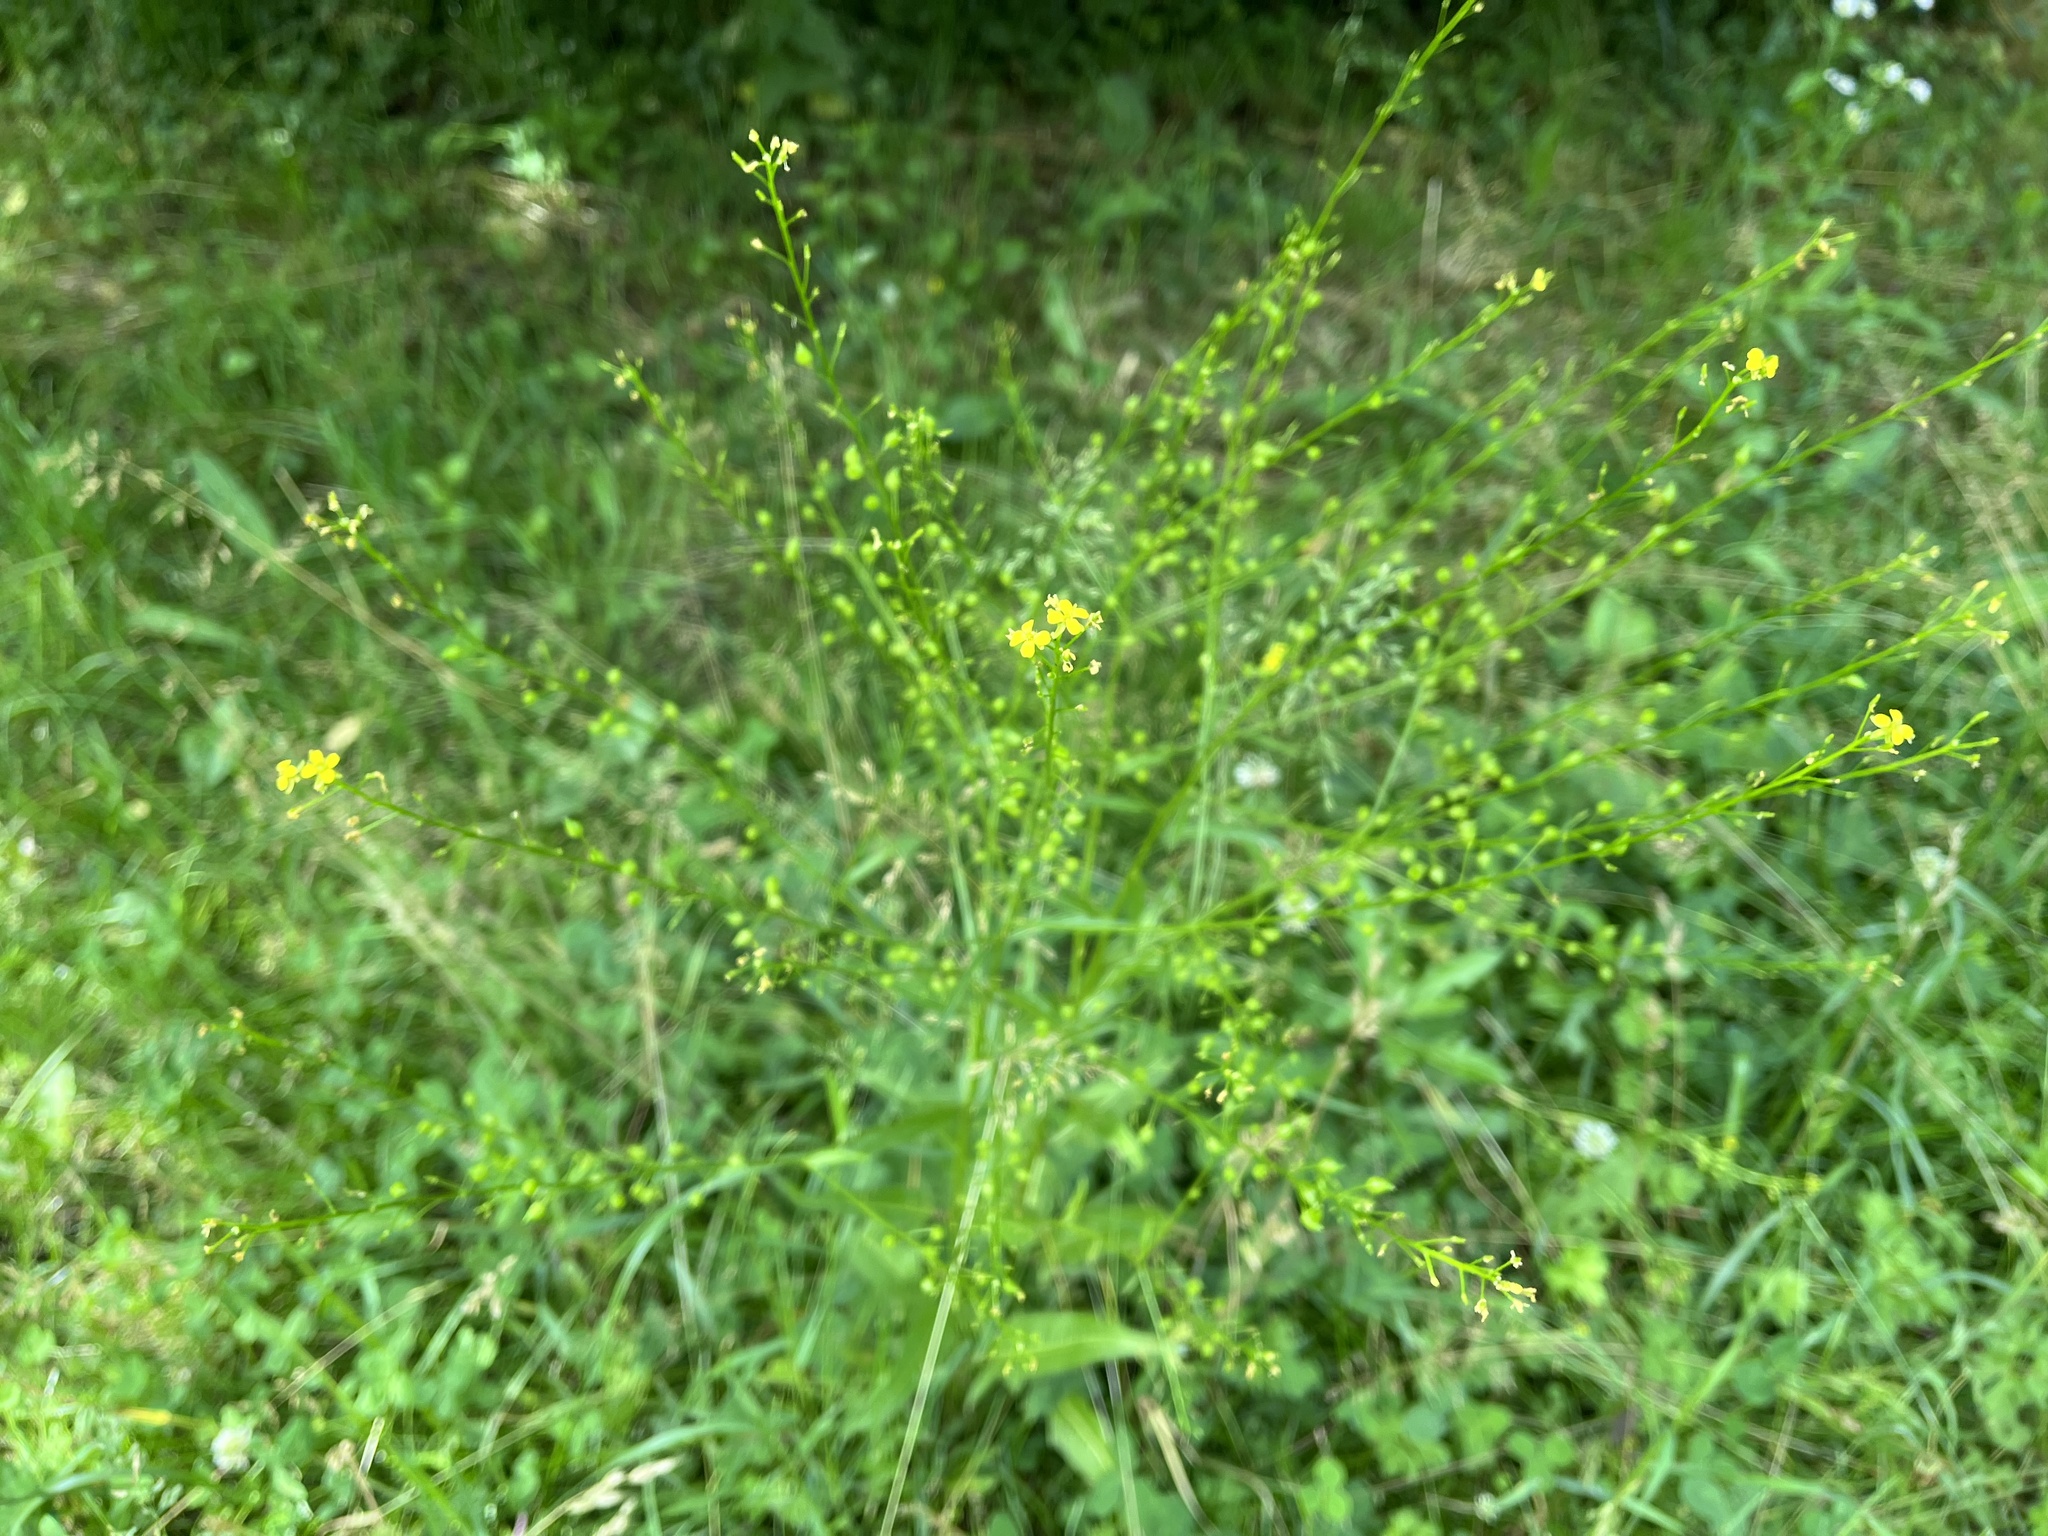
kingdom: Plantae
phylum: Tracheophyta
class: Magnoliopsida
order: Brassicales
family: Brassicaceae
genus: Bunias
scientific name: Bunias orientalis
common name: Warty-cabbage
